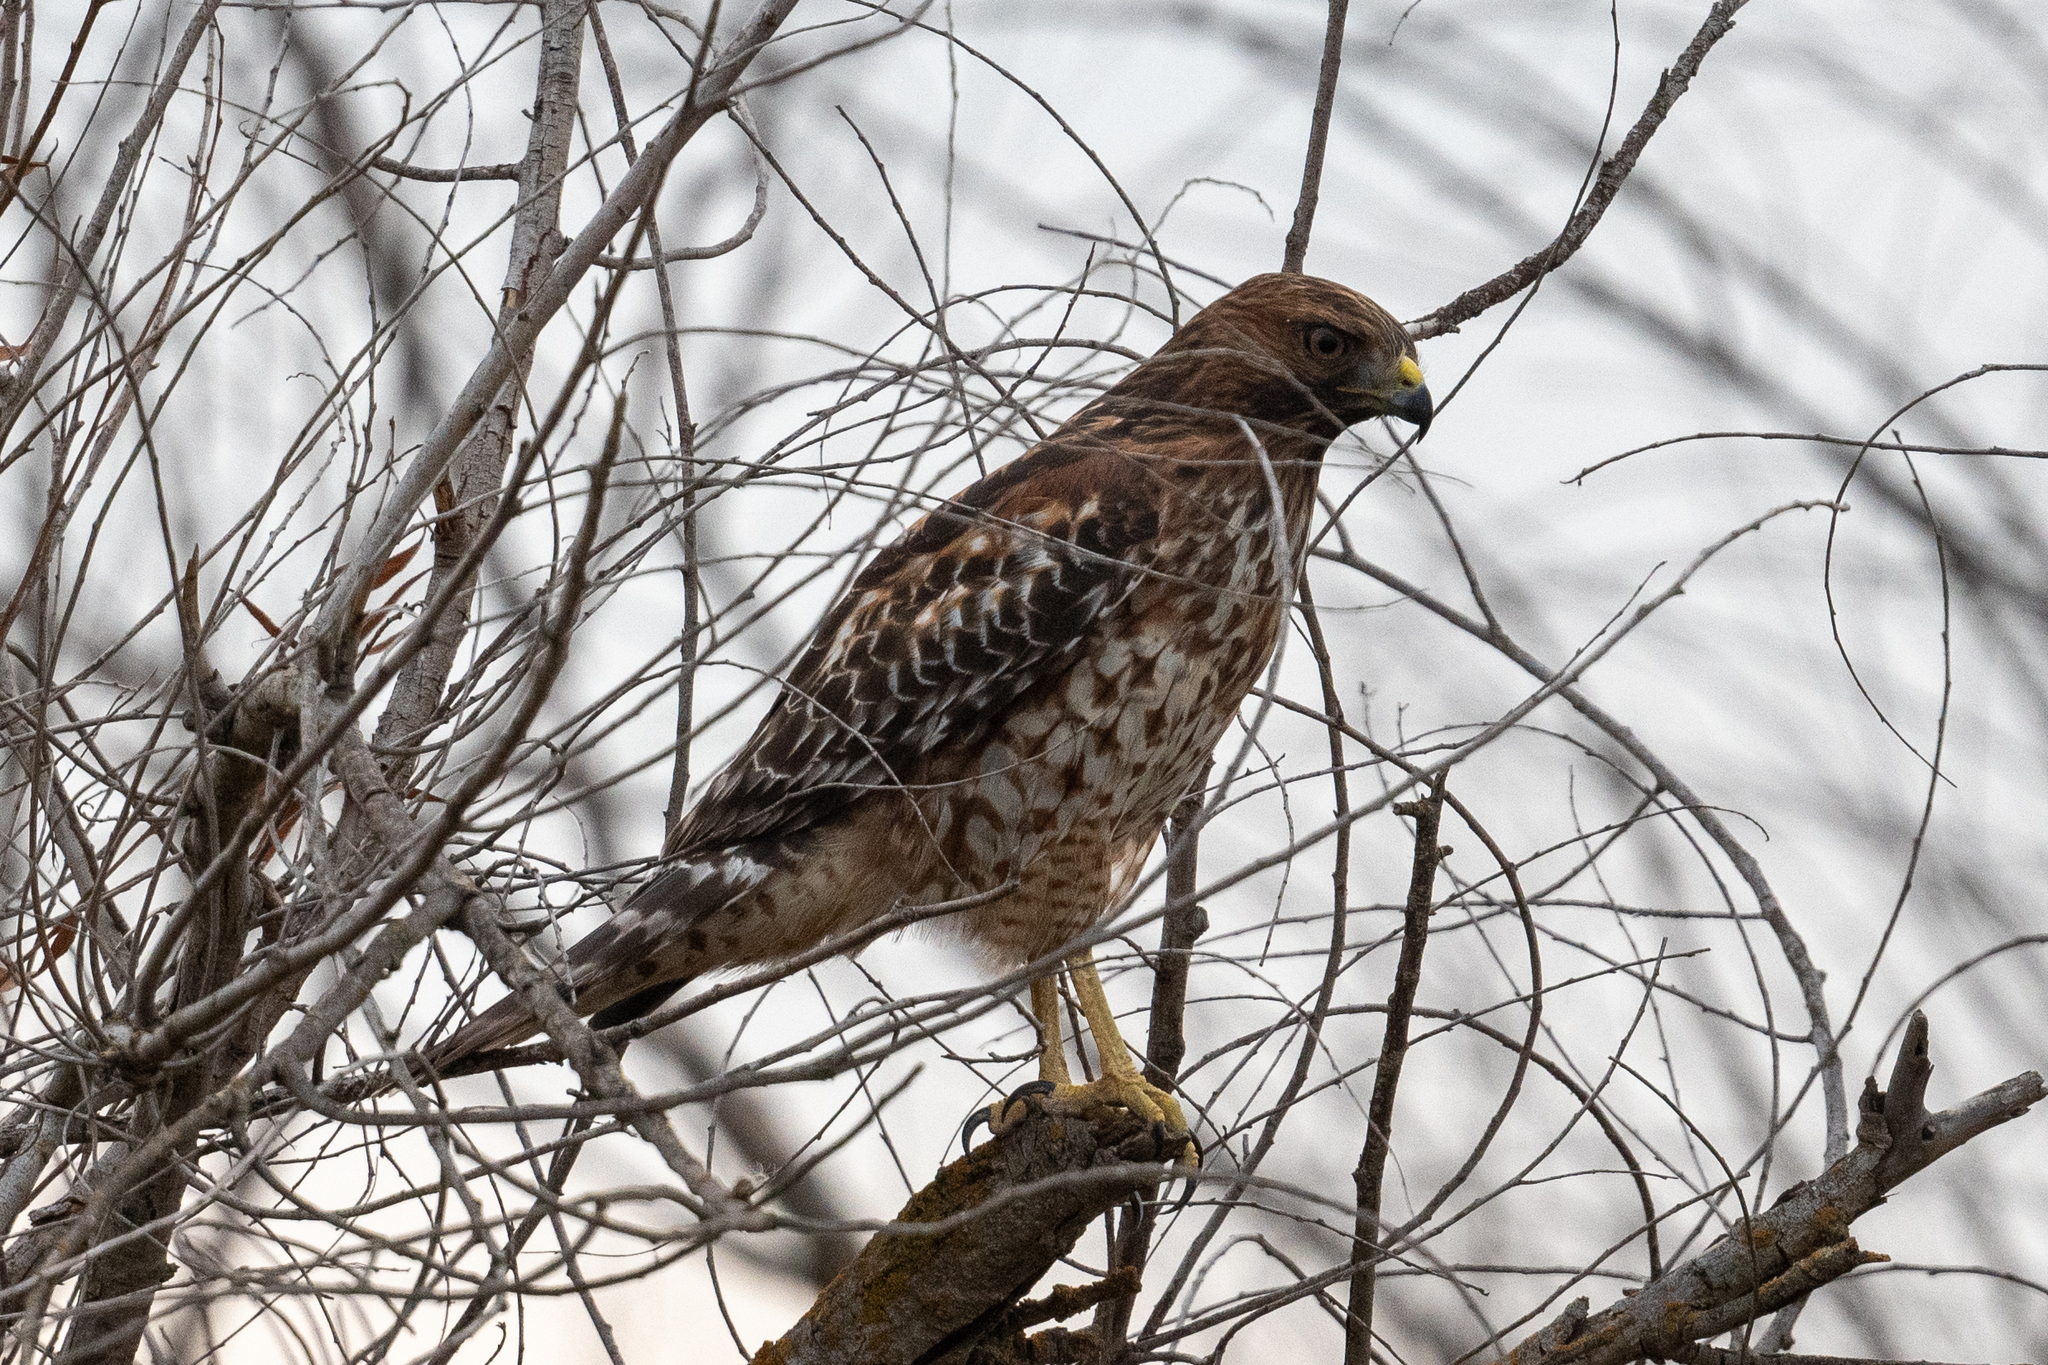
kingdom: Animalia
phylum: Chordata
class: Aves
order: Accipitriformes
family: Accipitridae
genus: Buteo
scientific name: Buteo lineatus
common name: Red-shouldered hawk
